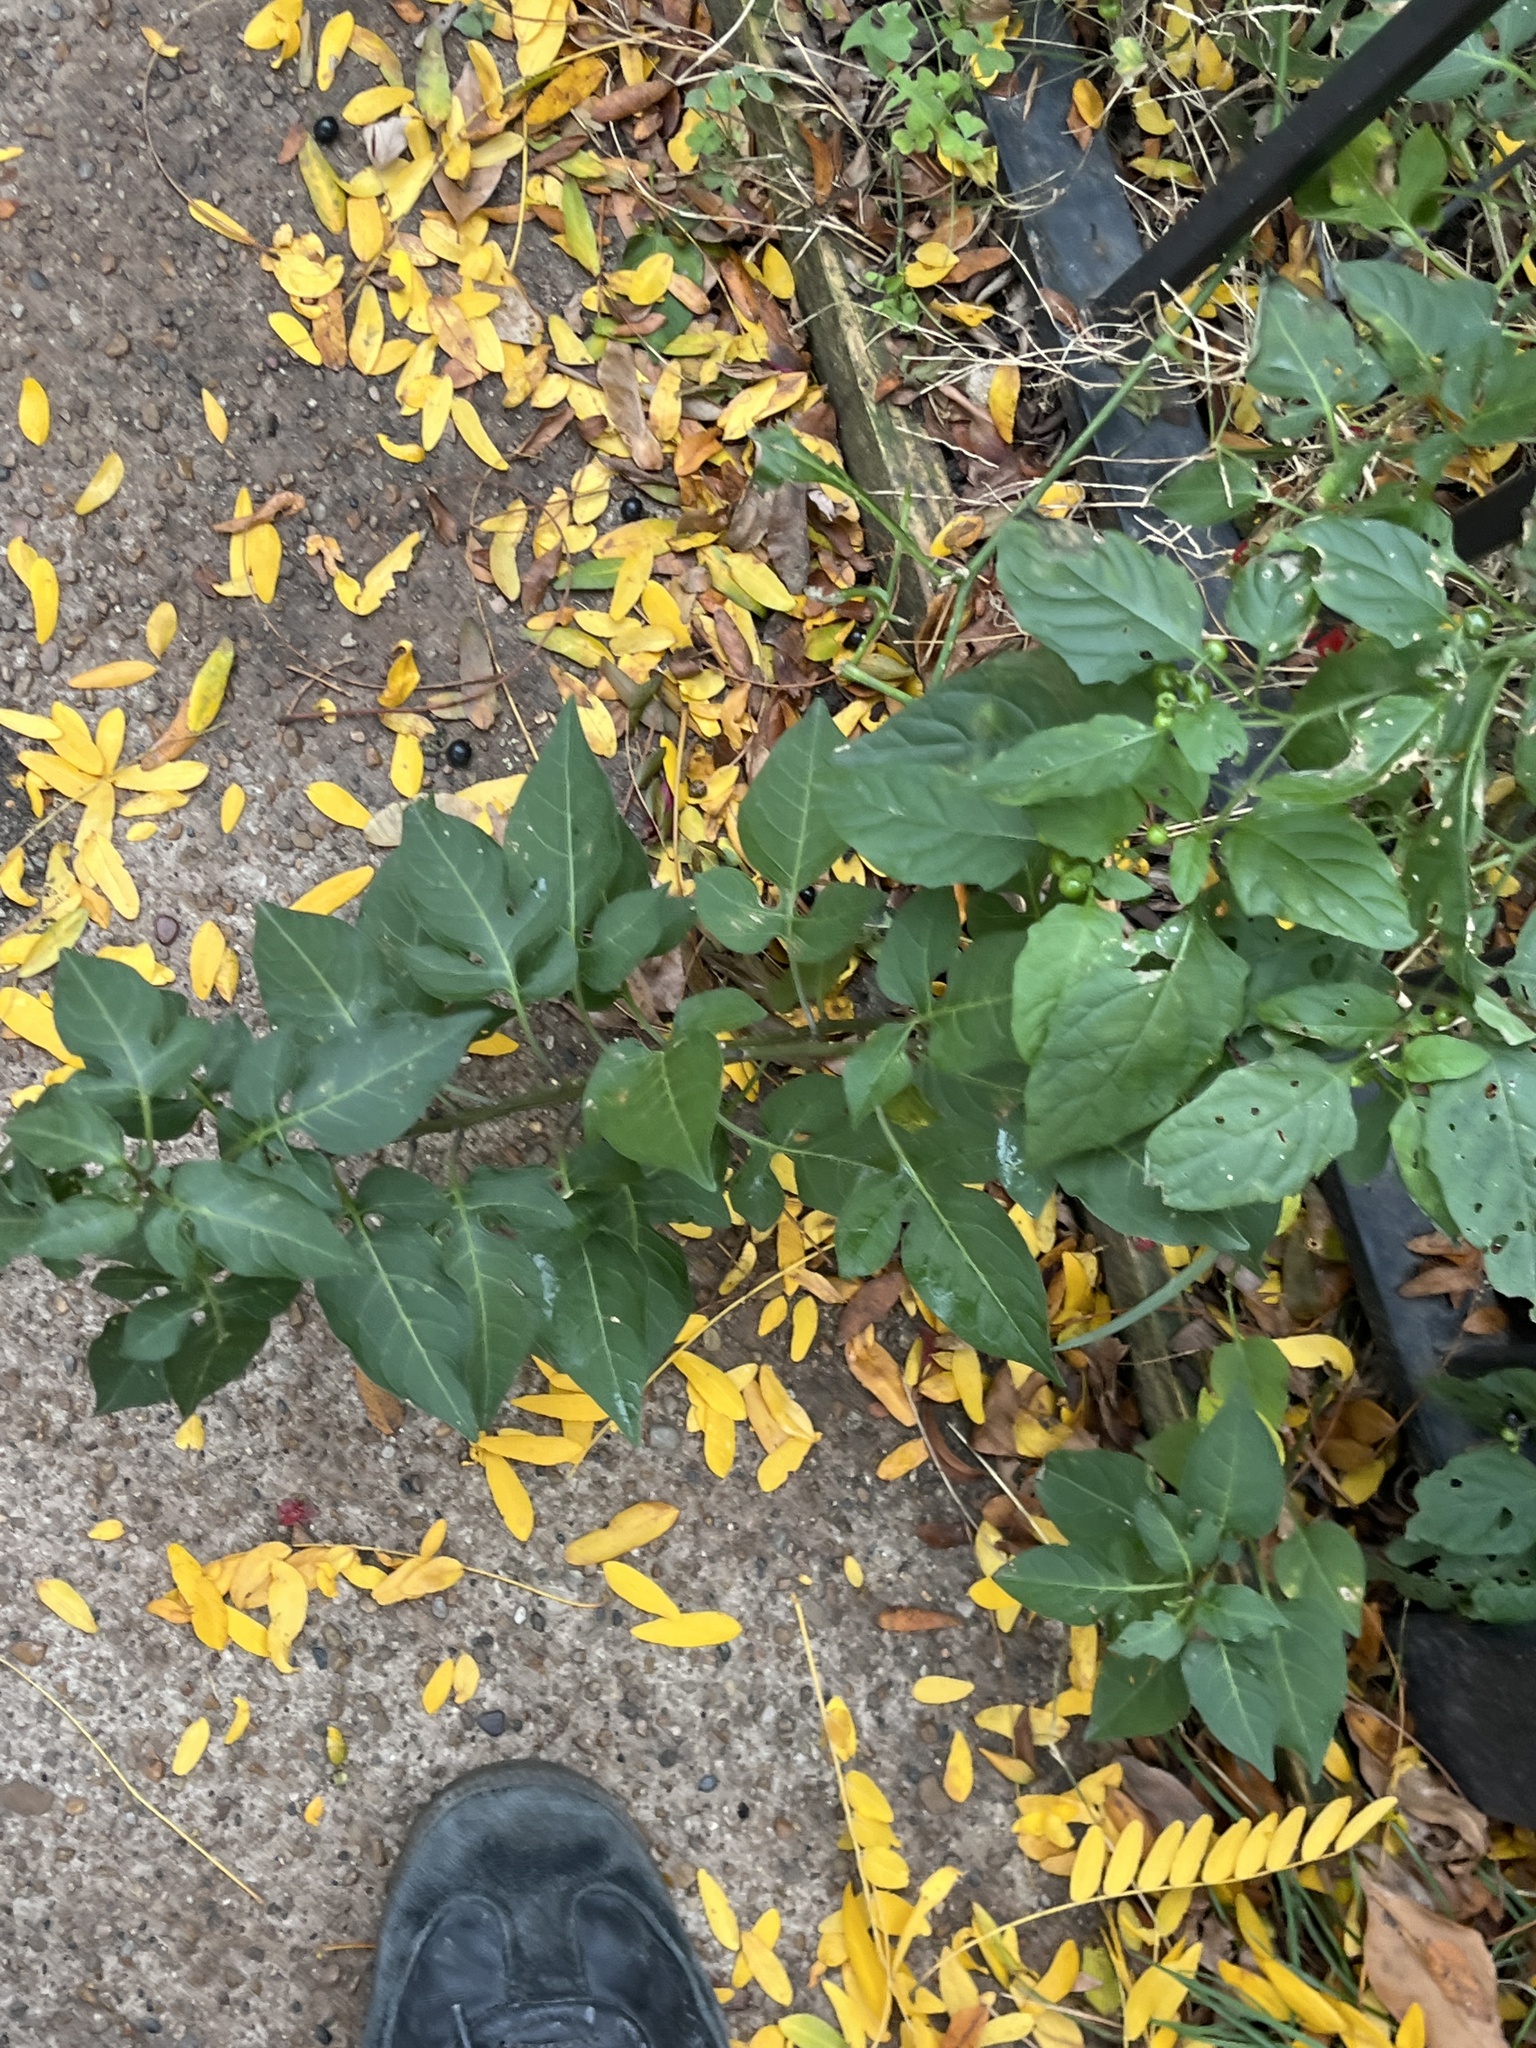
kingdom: Plantae
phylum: Tracheophyta
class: Magnoliopsida
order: Solanales
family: Solanaceae
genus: Solanum
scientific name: Solanum dulcamara
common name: Climbing nightshade
